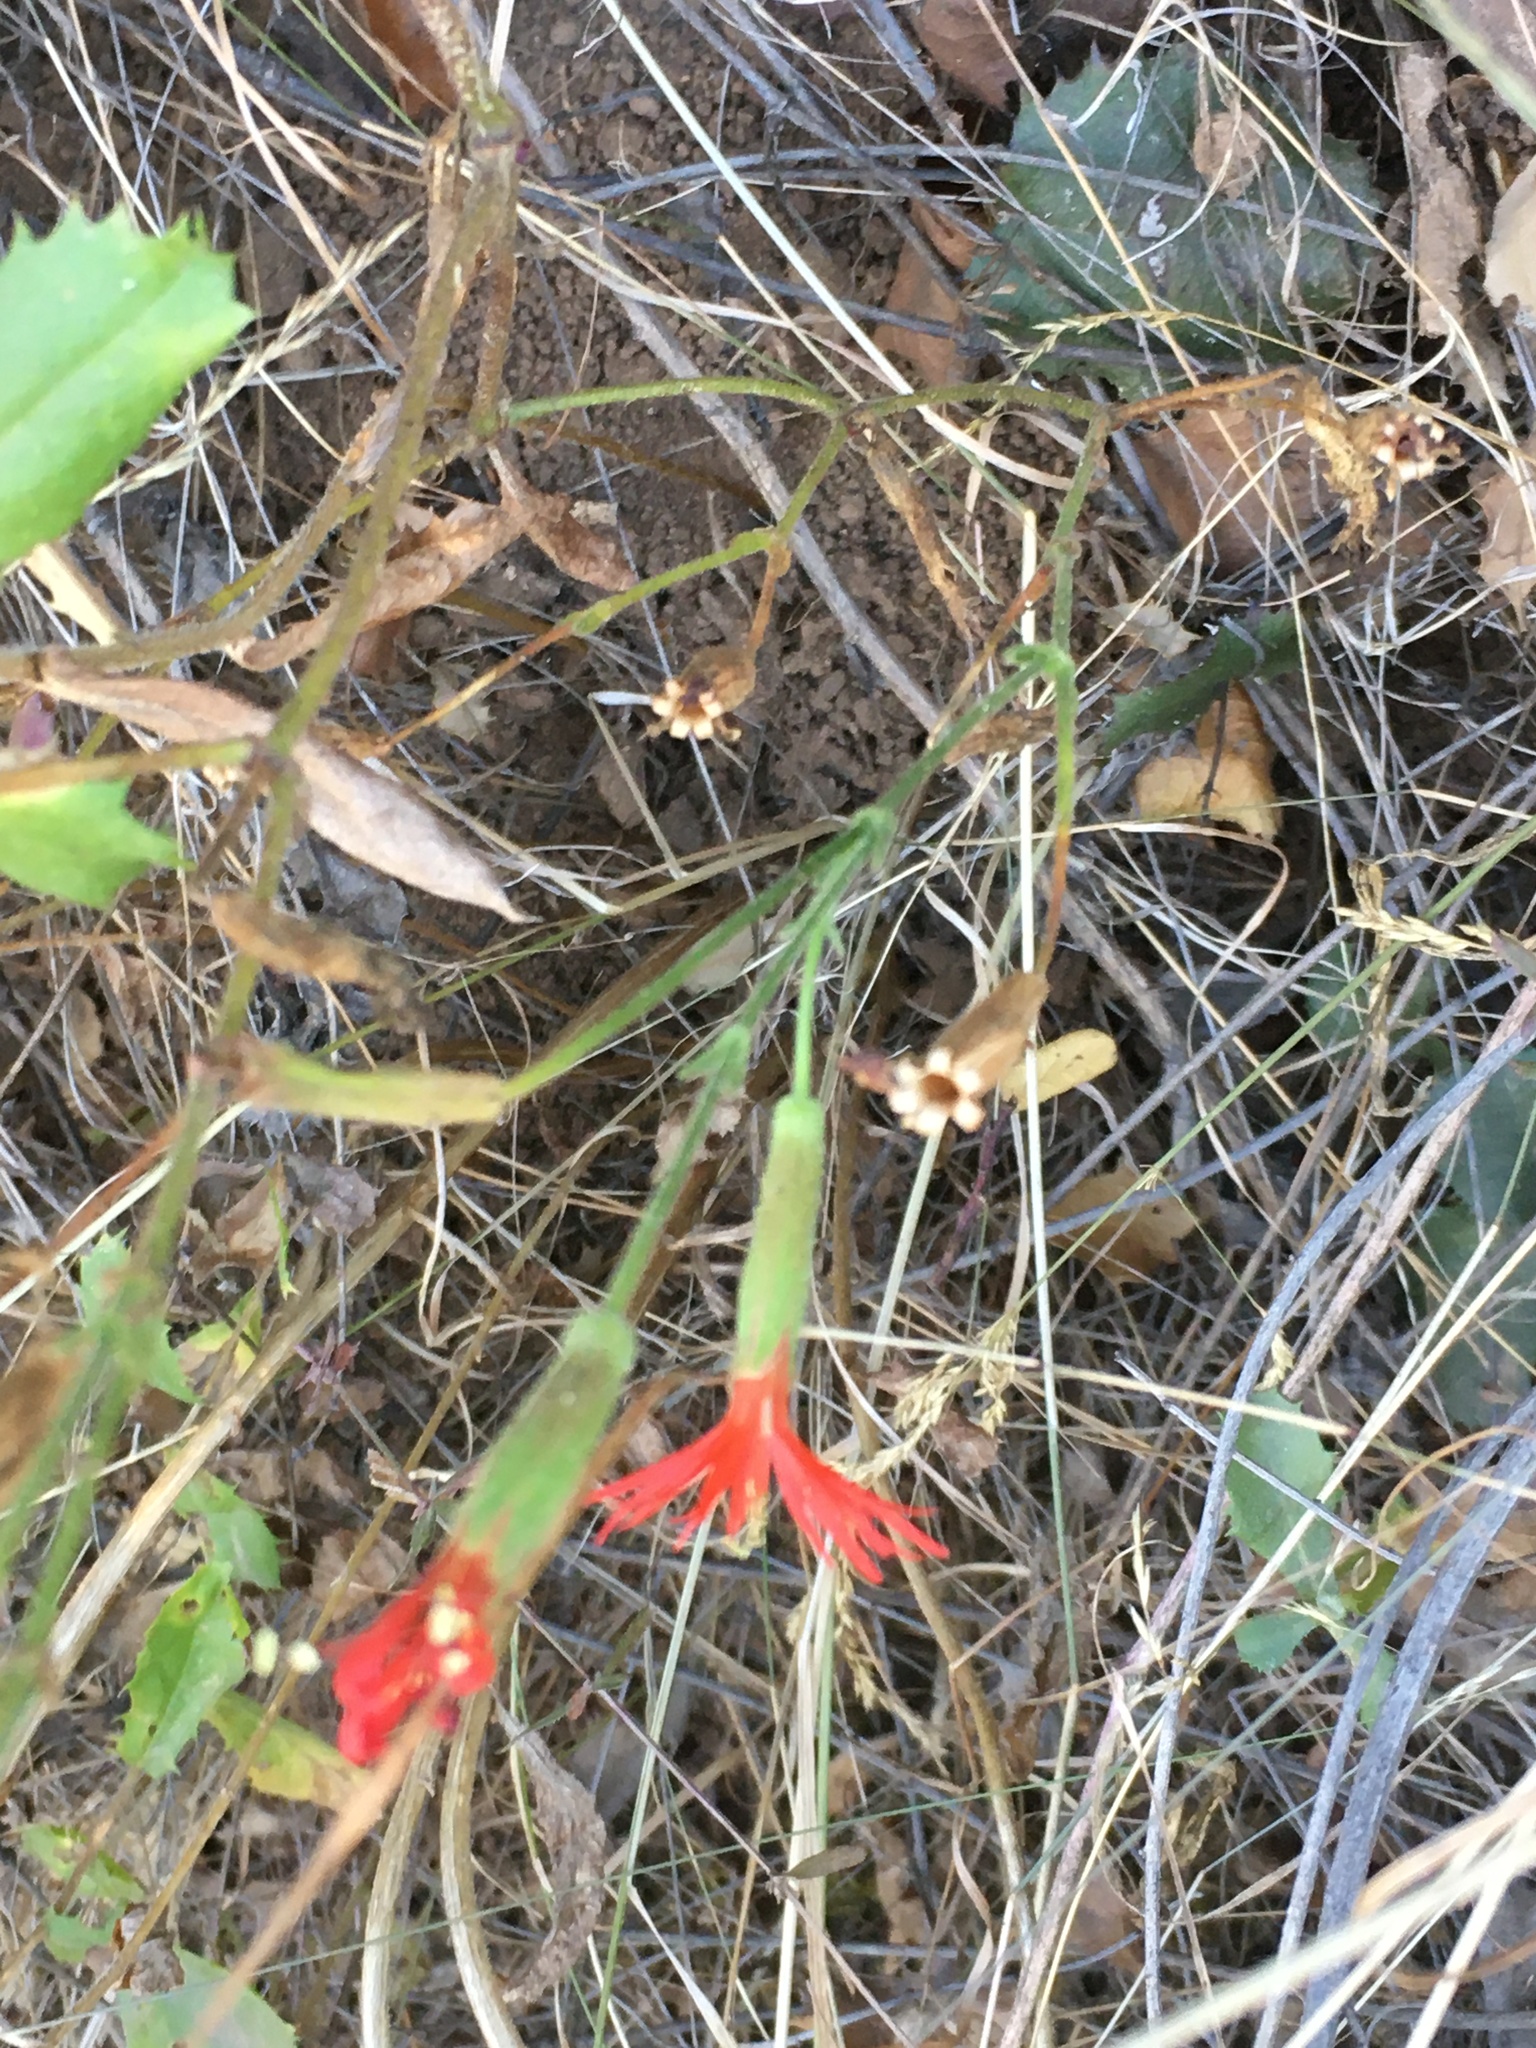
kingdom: Plantae
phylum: Tracheophyta
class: Magnoliopsida
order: Caryophyllales
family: Caryophyllaceae
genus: Silene
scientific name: Silene laciniata
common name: Indian-pink
